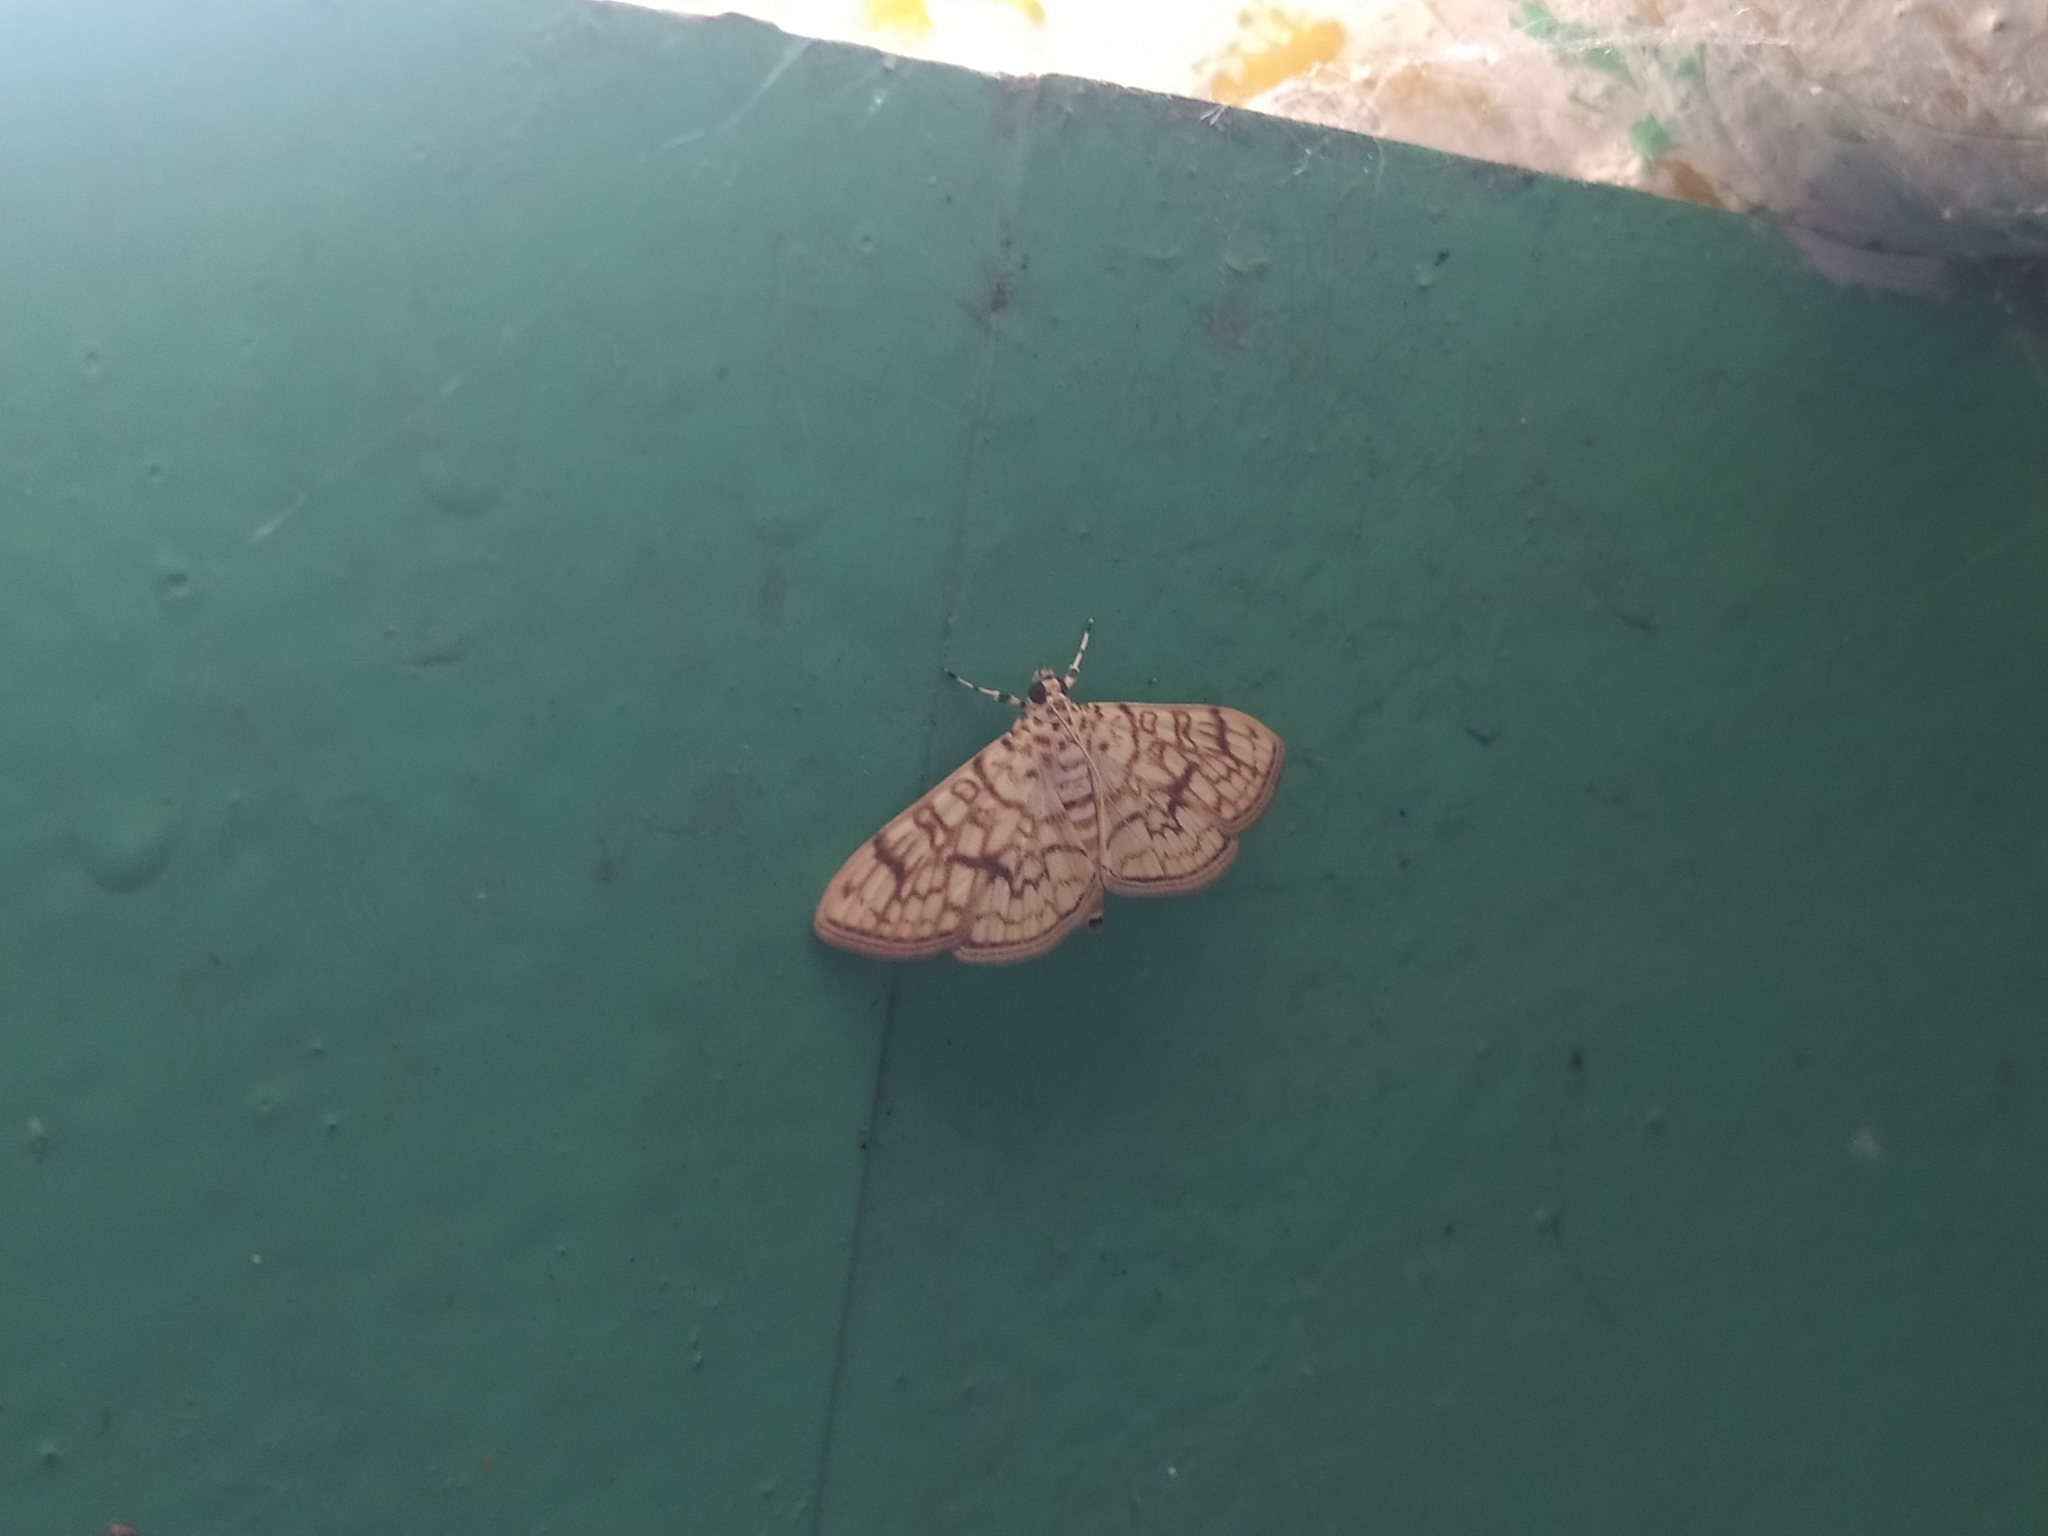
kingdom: Animalia
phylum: Arthropoda
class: Insecta
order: Lepidoptera
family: Crambidae
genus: Haritalodes
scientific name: Haritalodes derogata
